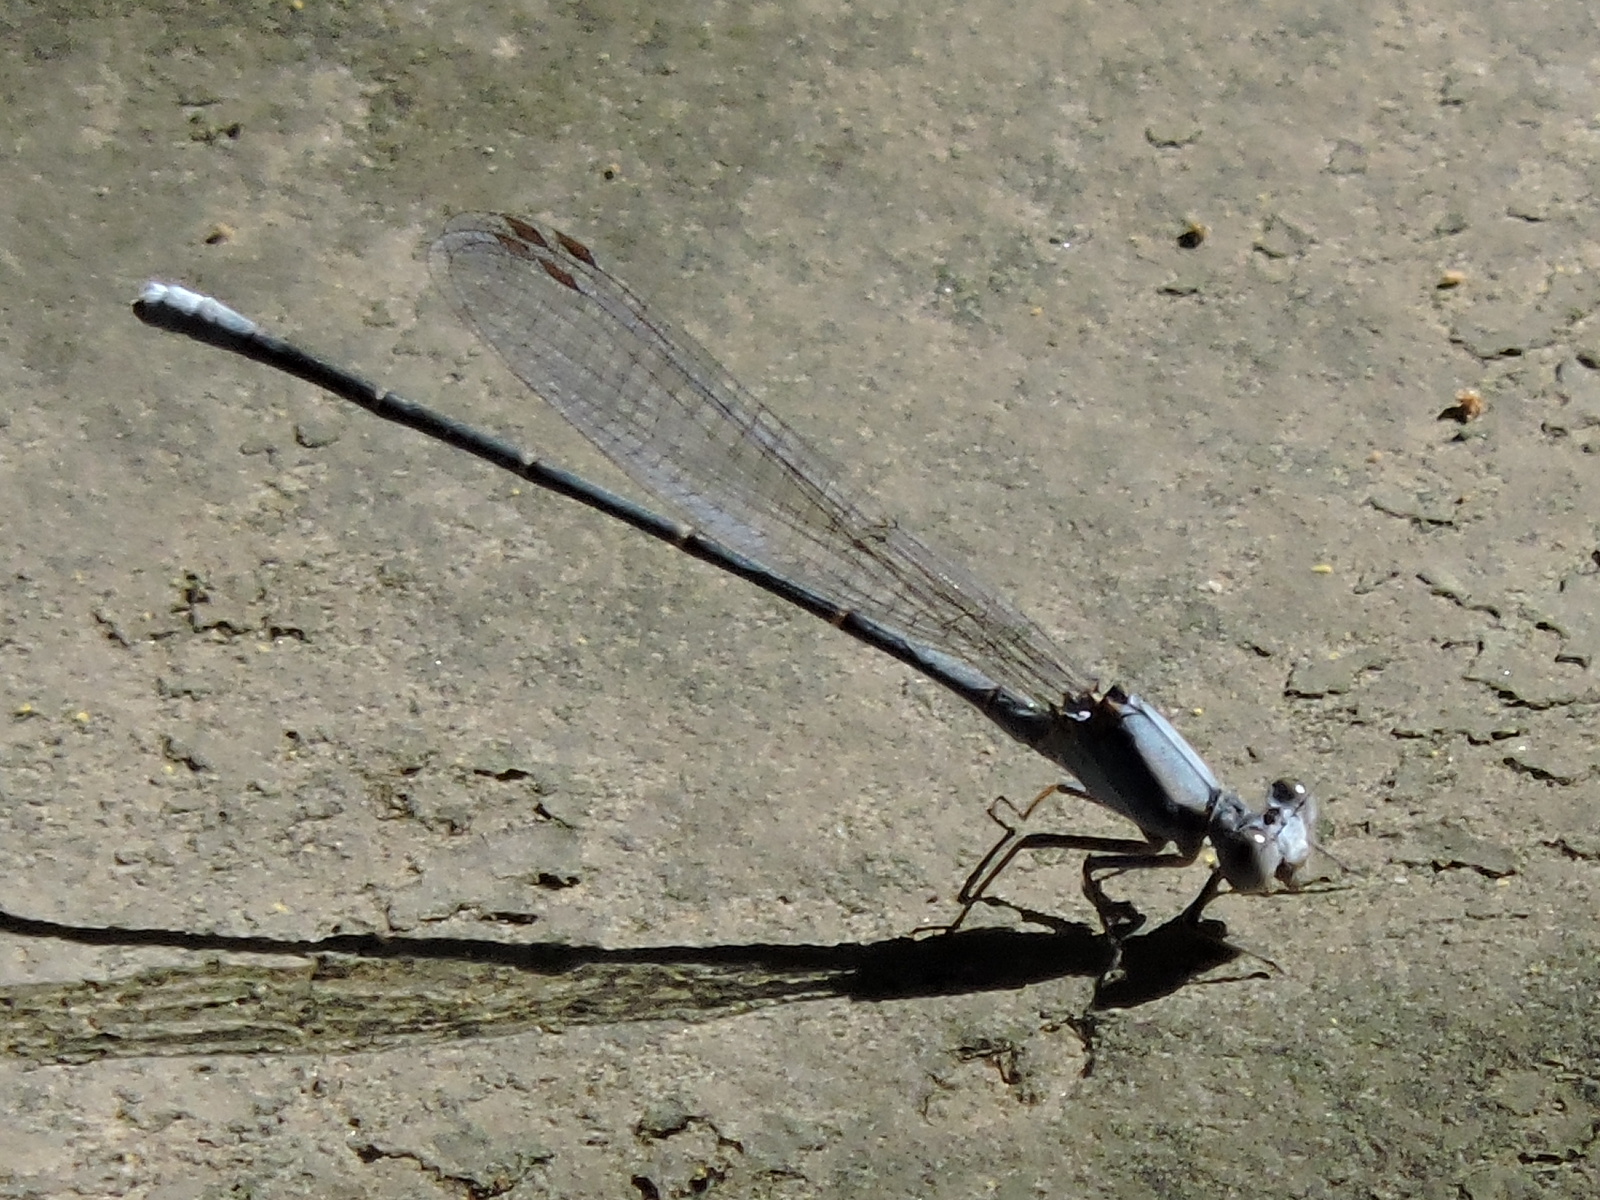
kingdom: Animalia
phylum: Arthropoda
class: Insecta
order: Odonata
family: Coenagrionidae
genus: Argia
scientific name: Argia moesta
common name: Powdered dancer
